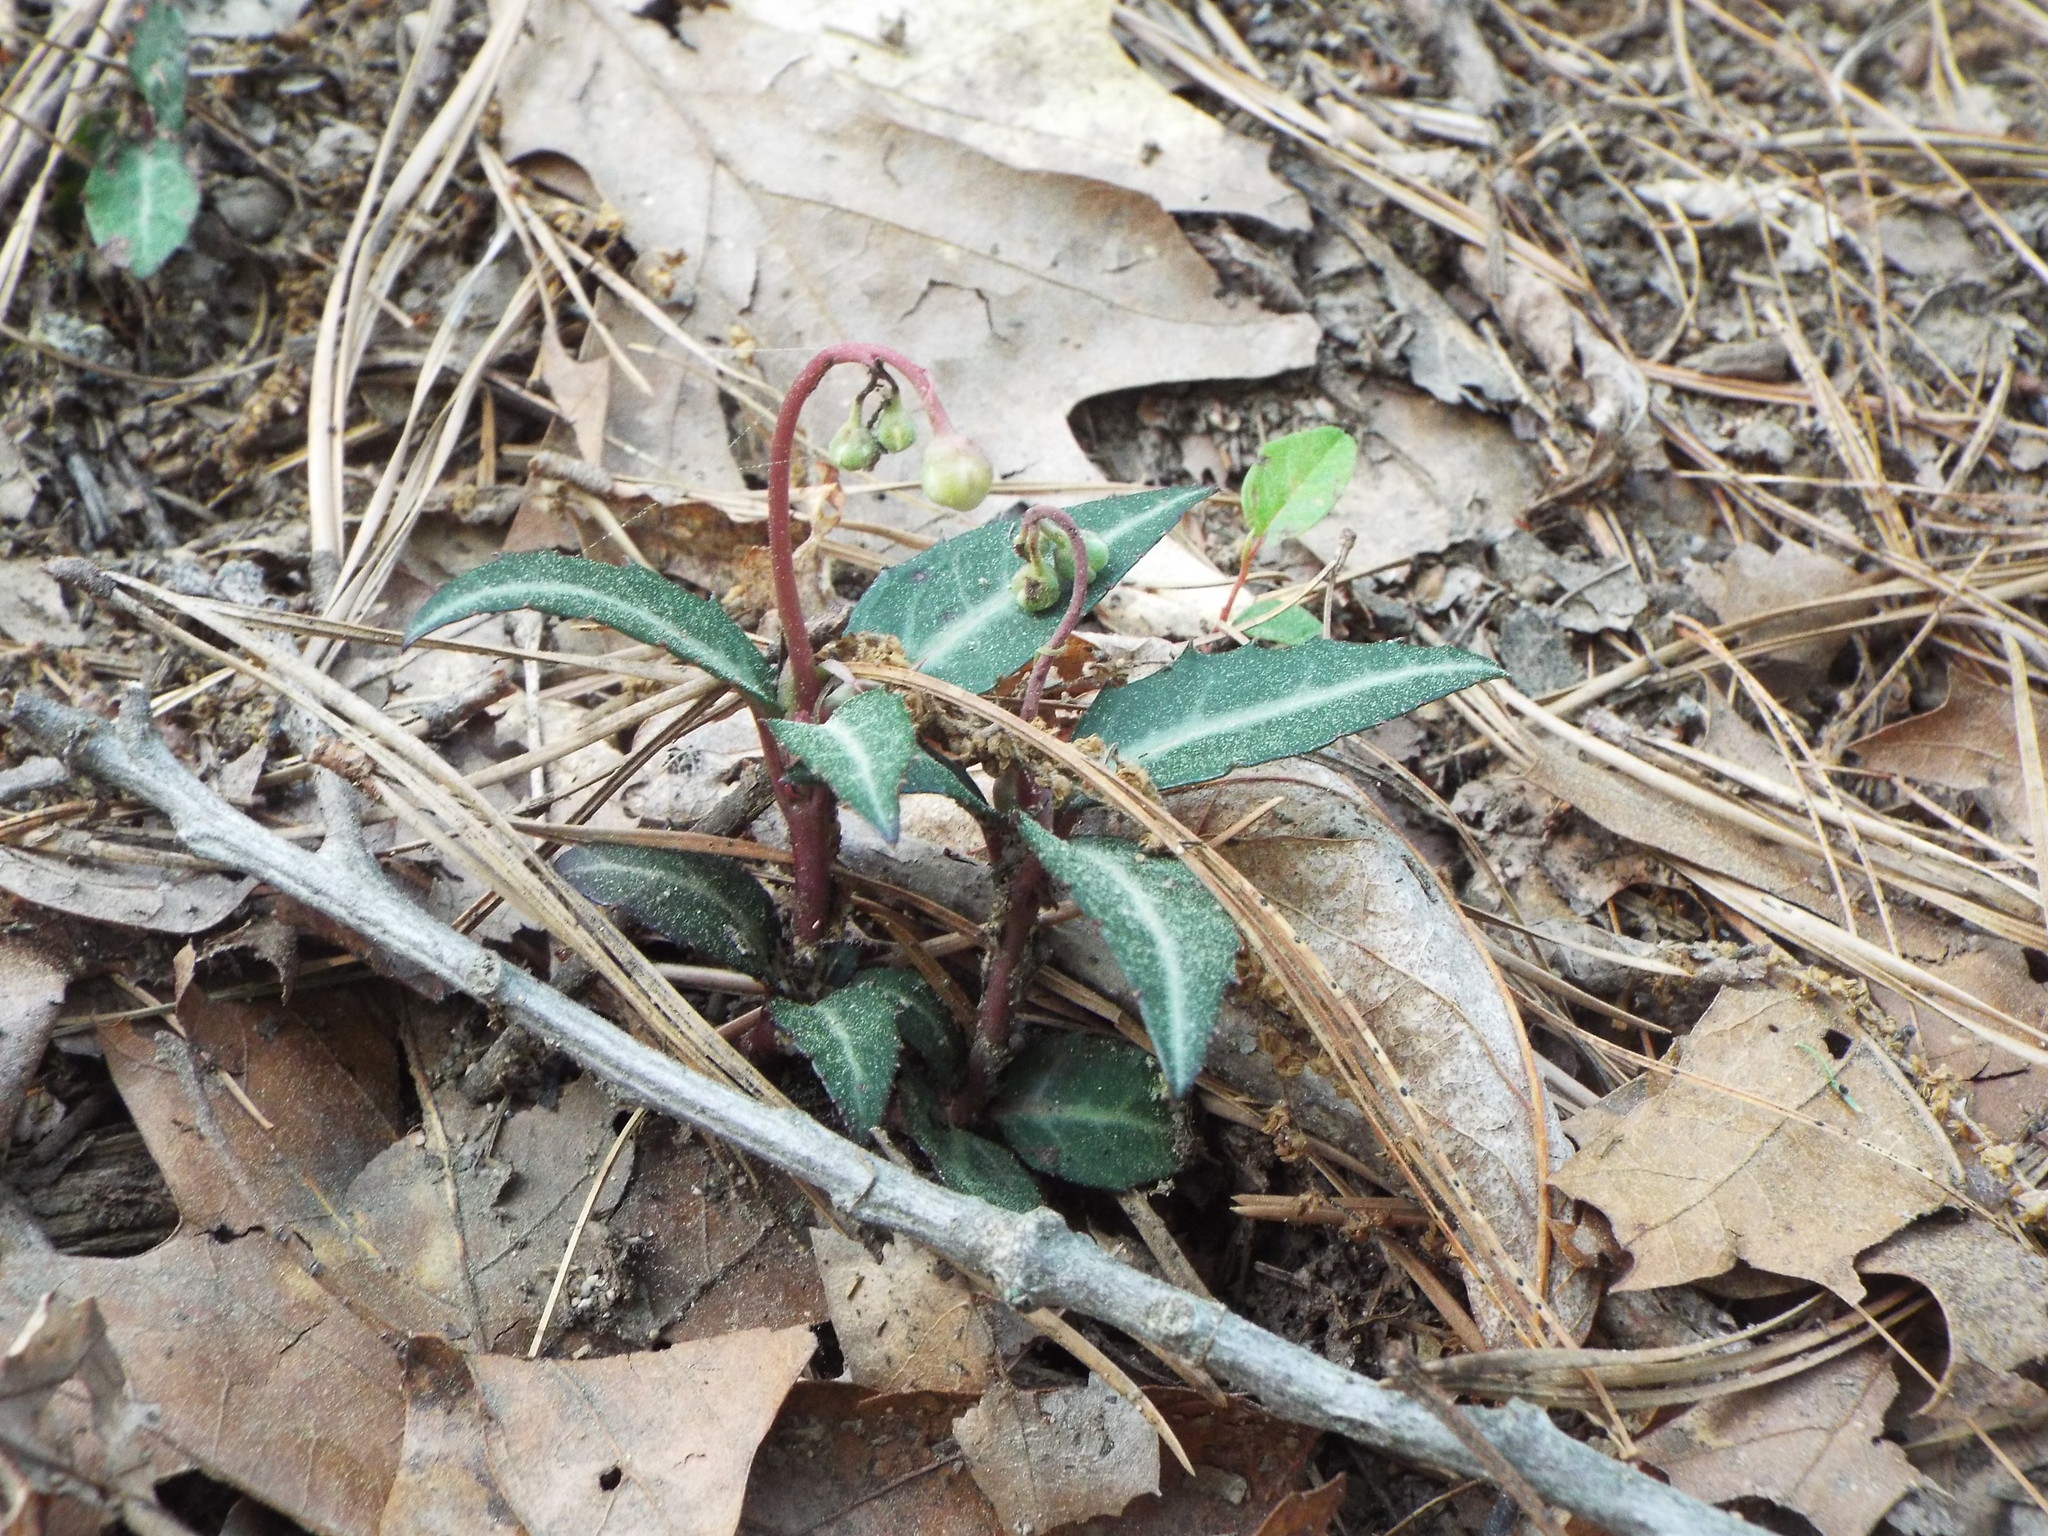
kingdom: Plantae
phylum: Tracheophyta
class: Magnoliopsida
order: Ericales
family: Ericaceae
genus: Chimaphila
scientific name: Chimaphila maculata
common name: Spotted pipsissewa
